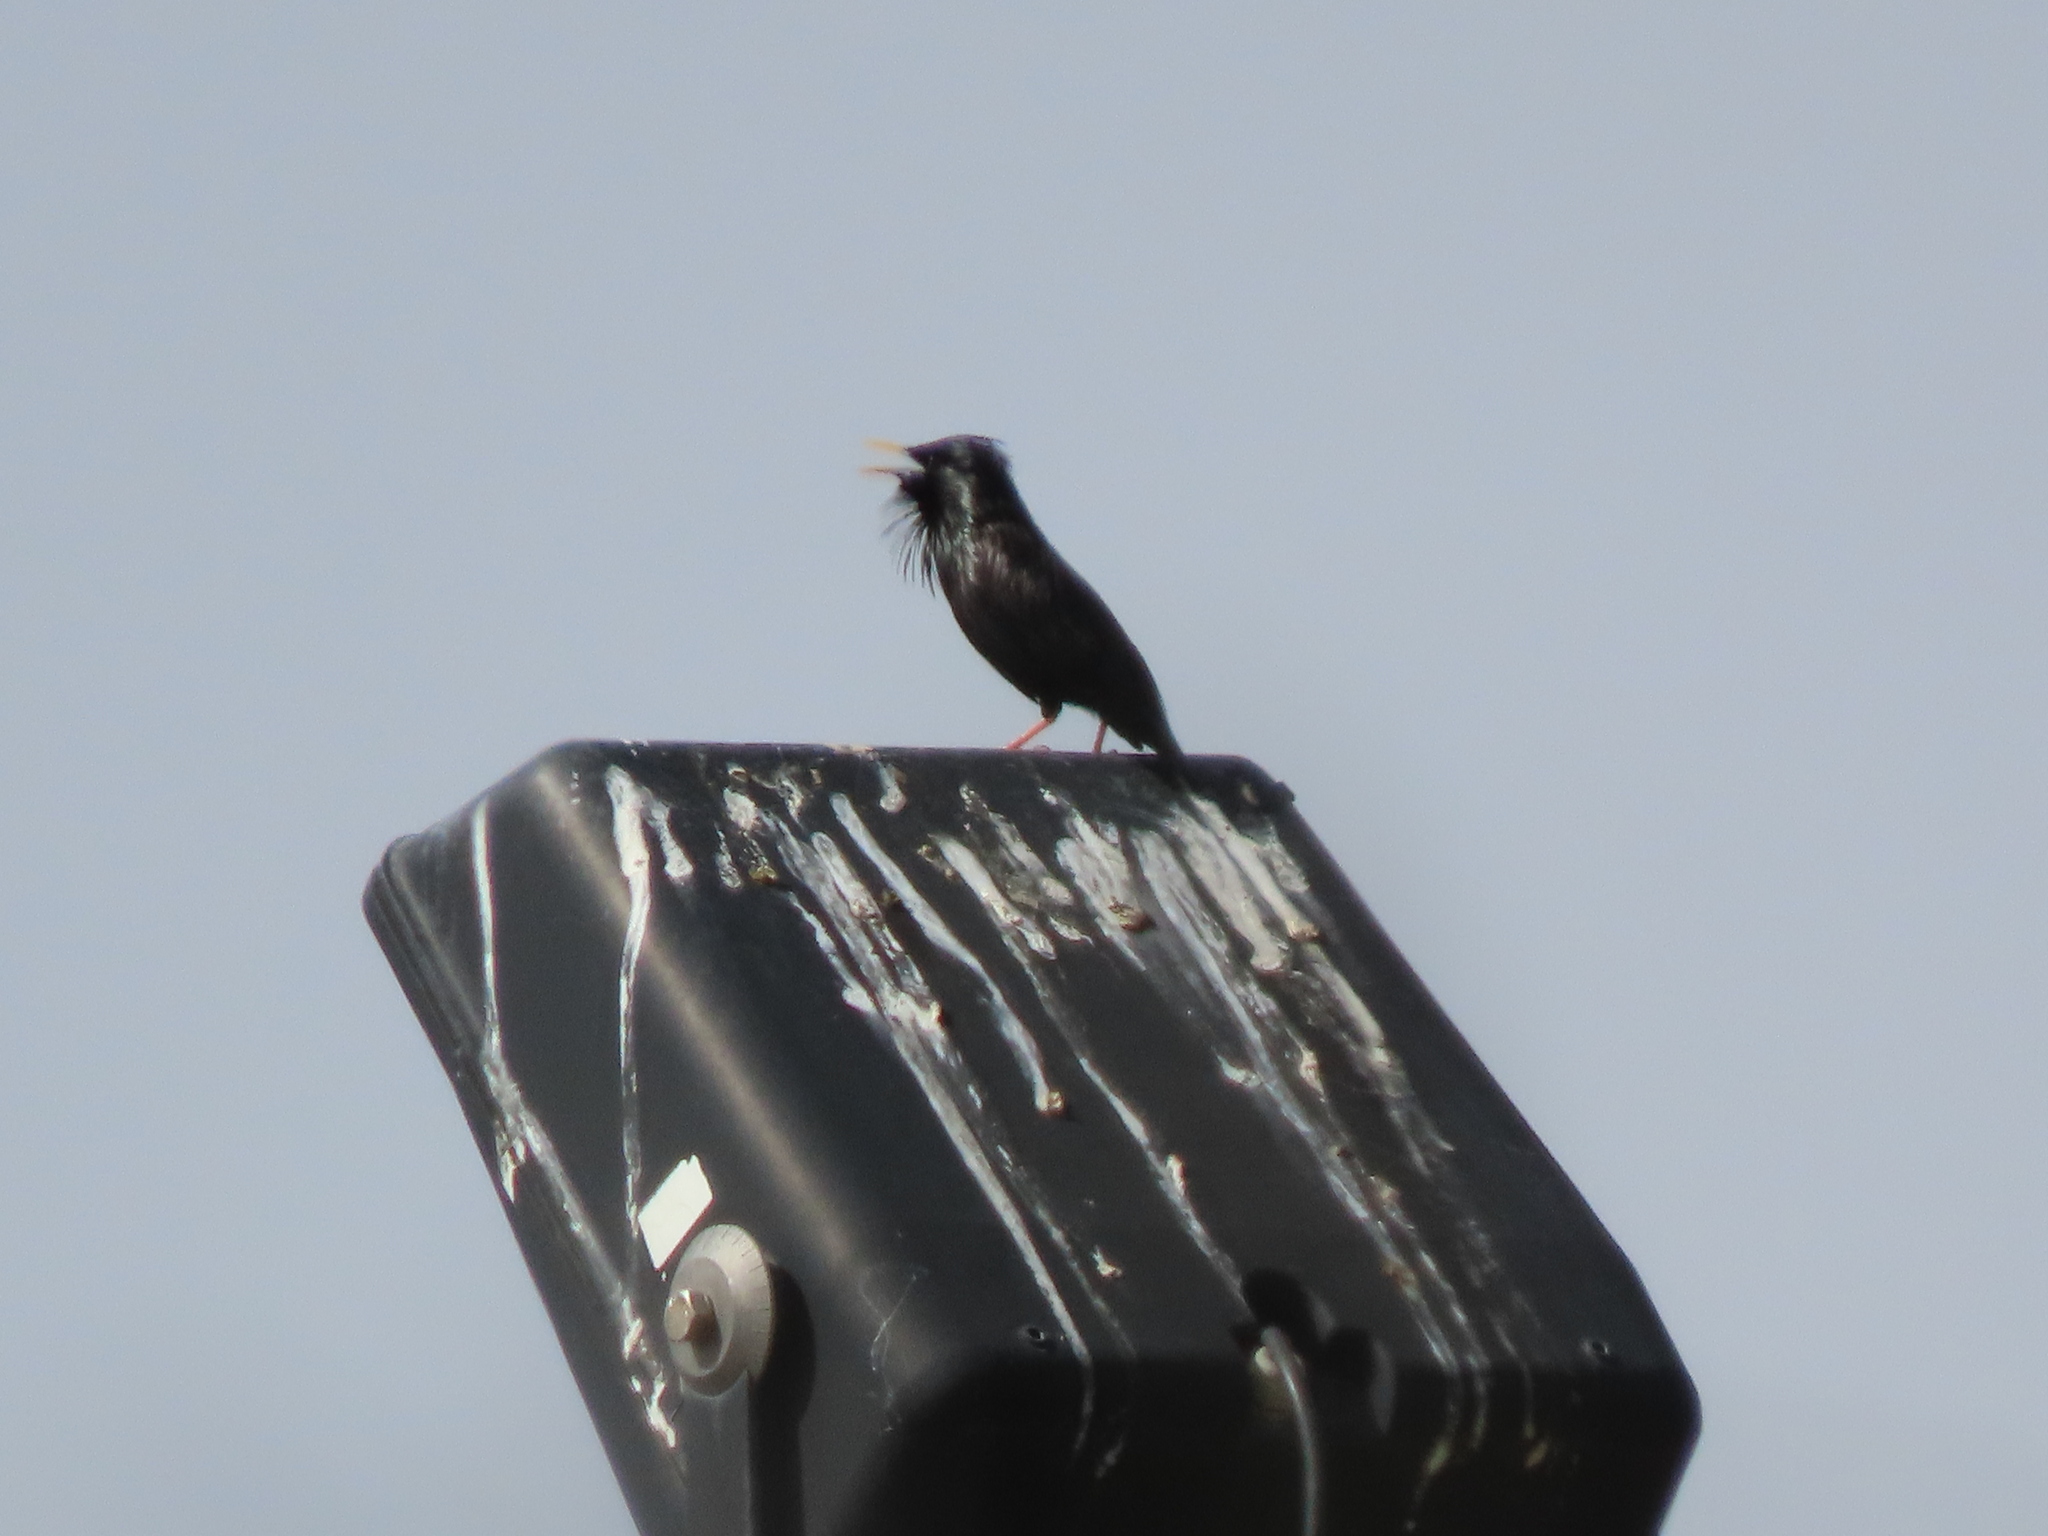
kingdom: Animalia
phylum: Chordata
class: Aves
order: Passeriformes
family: Sturnidae
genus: Sturnus
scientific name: Sturnus unicolor
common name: Spotless starling
